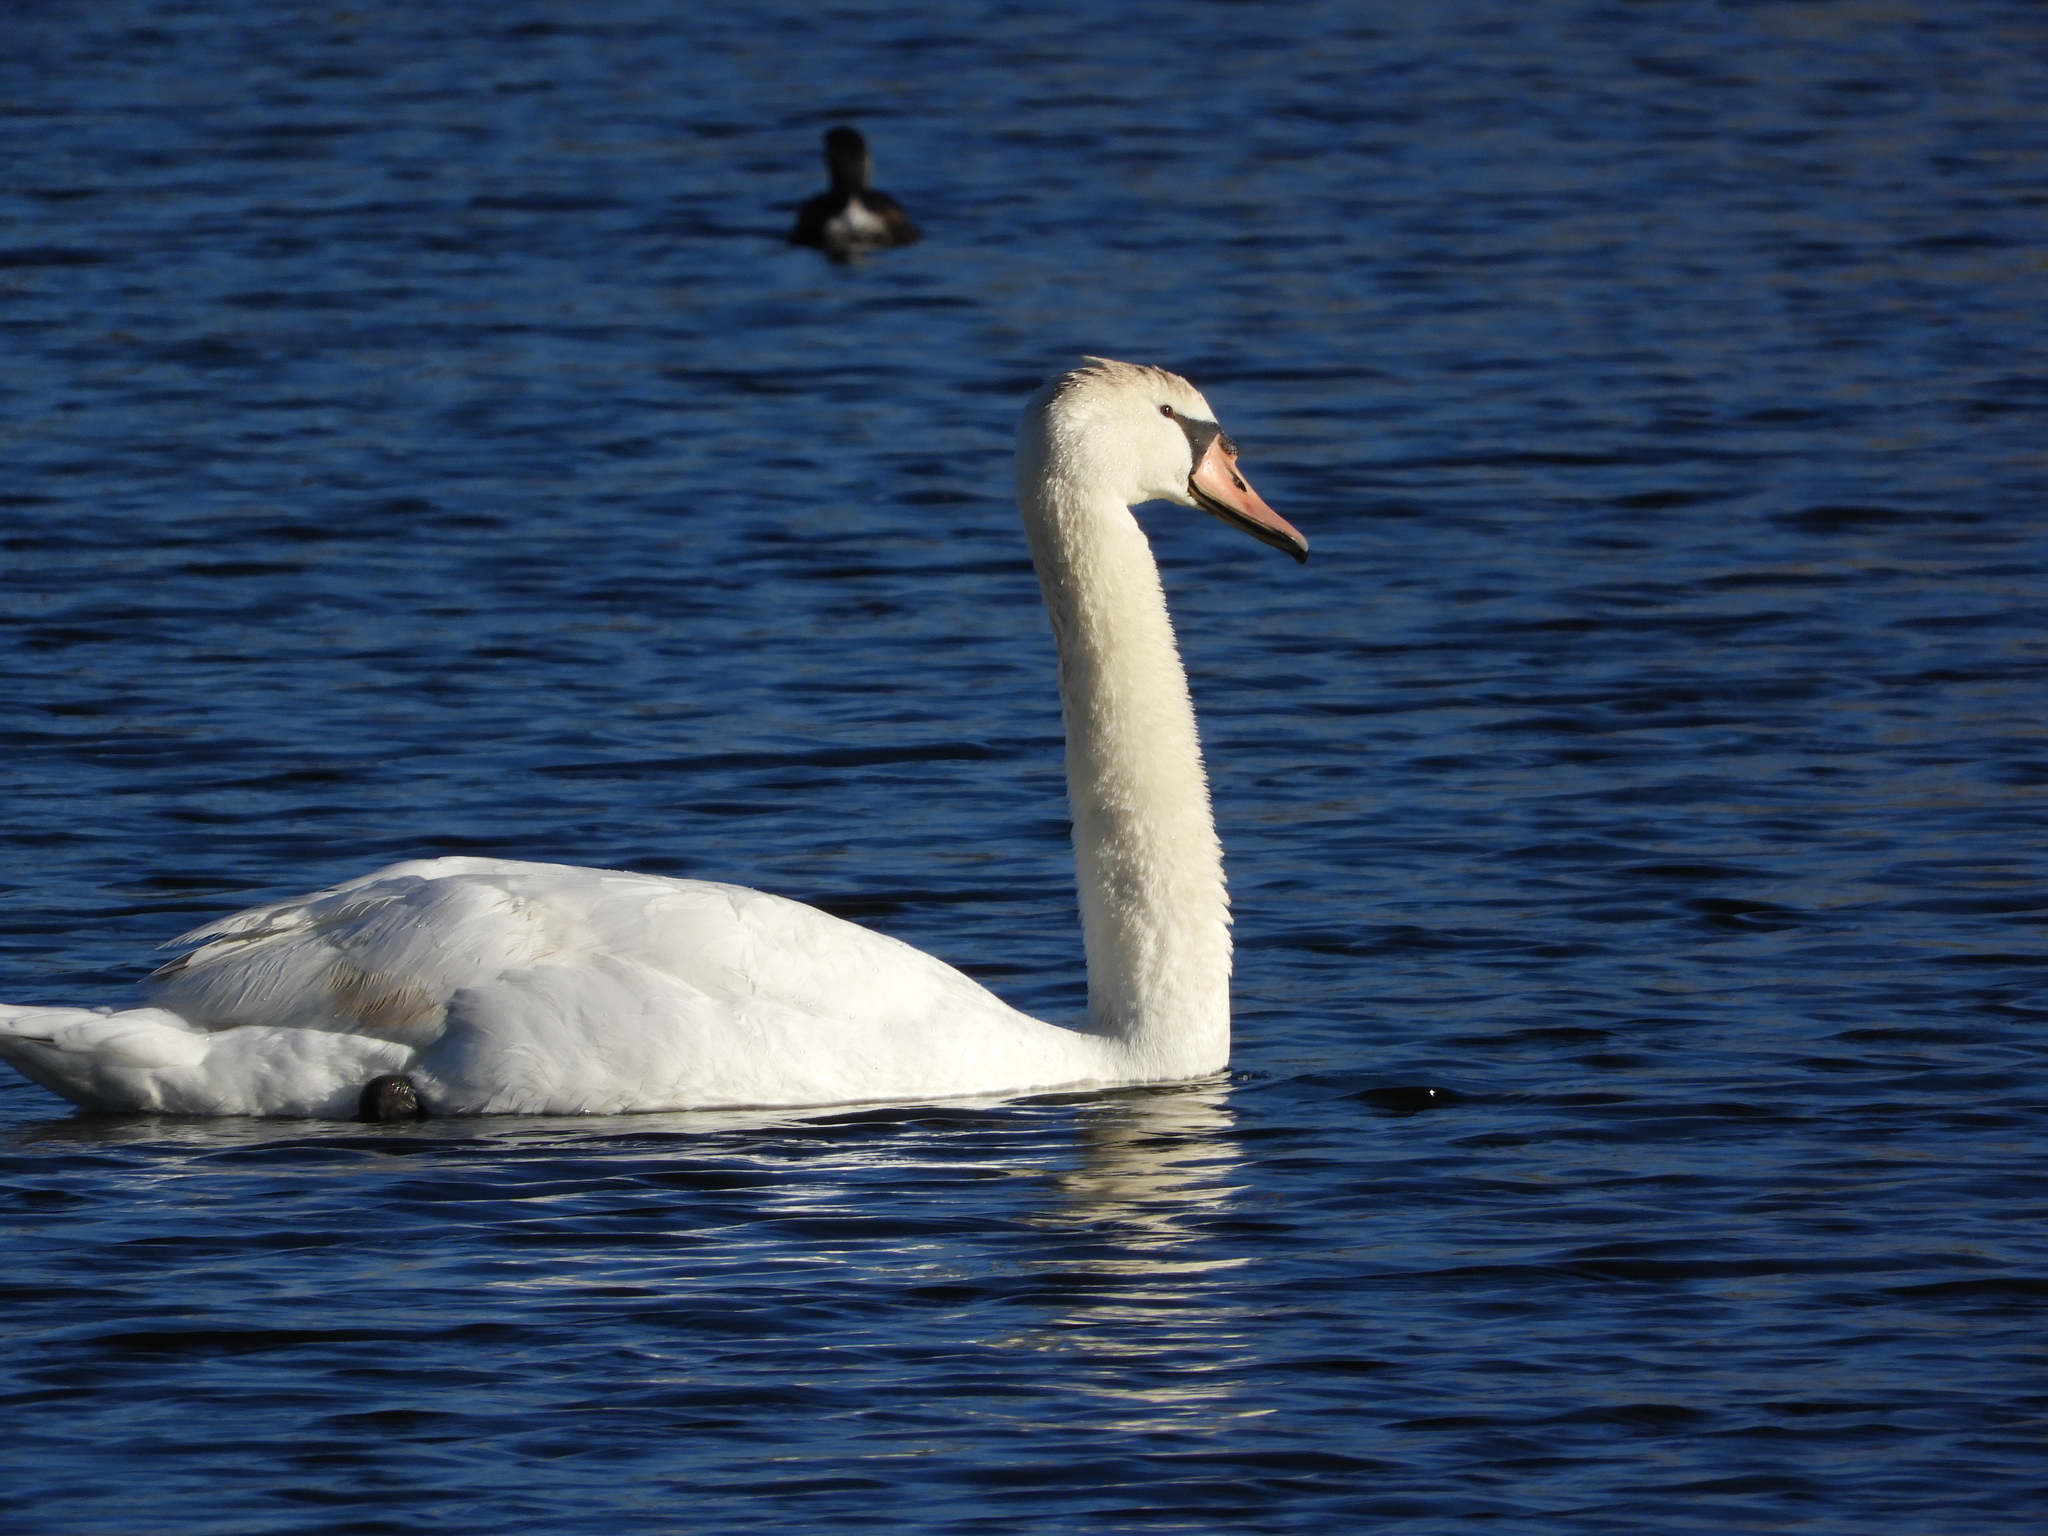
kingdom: Animalia
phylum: Chordata
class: Aves
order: Anseriformes
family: Anatidae
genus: Cygnus
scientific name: Cygnus olor
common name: Mute swan
